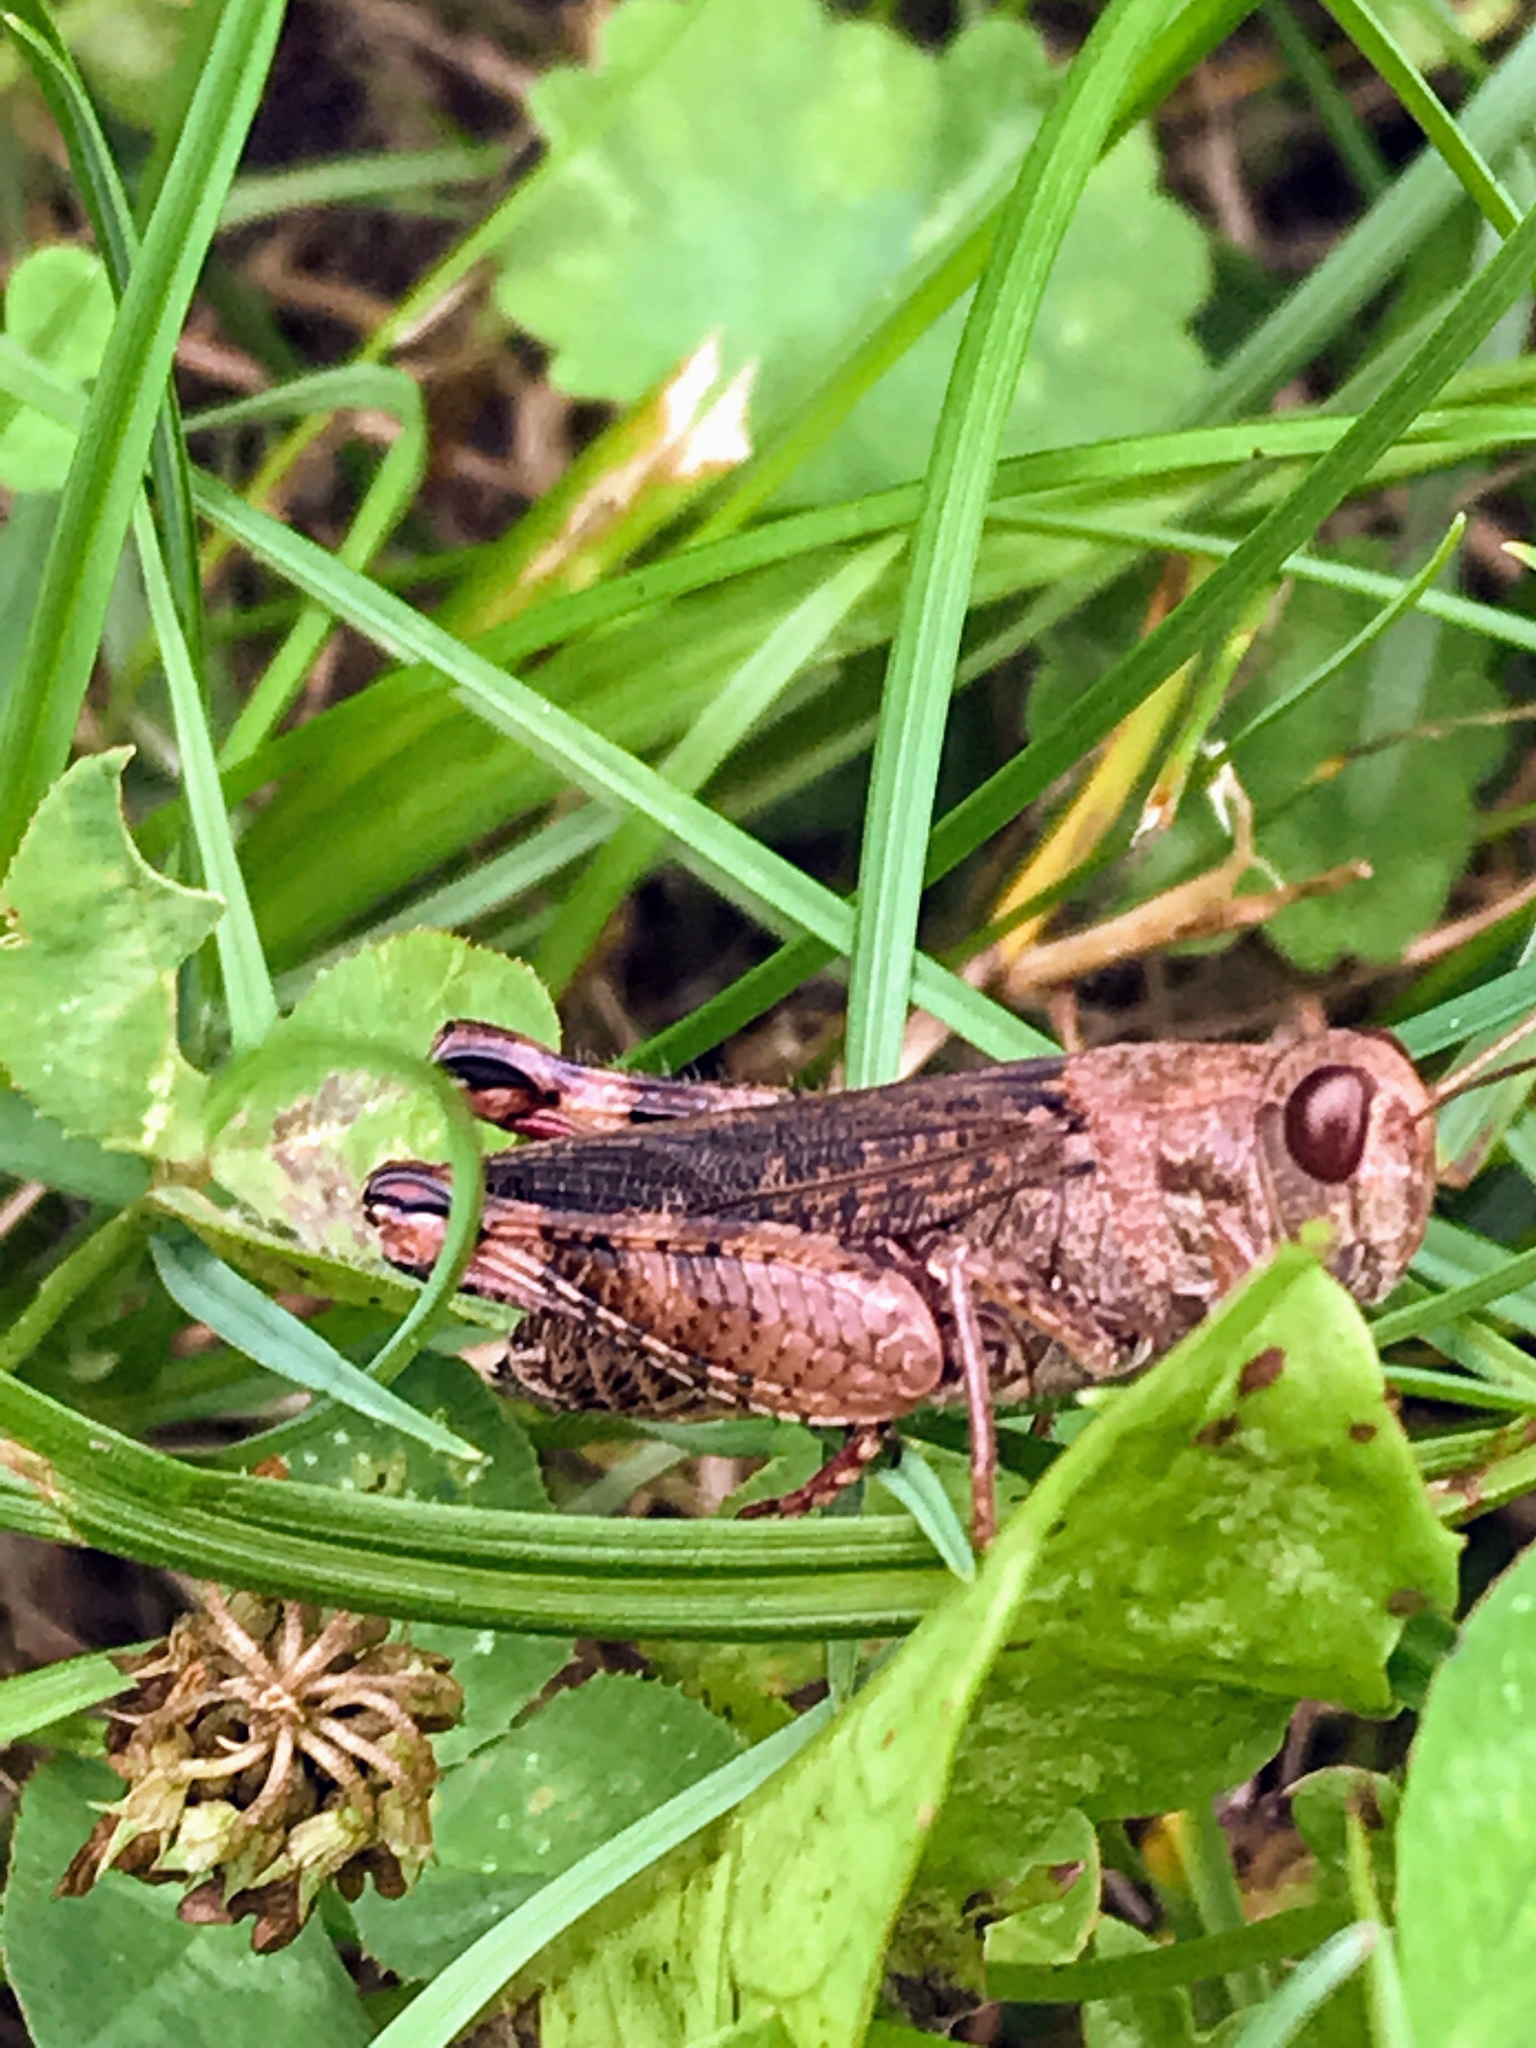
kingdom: Animalia
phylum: Arthropoda
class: Insecta
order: Orthoptera
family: Acrididae
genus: Calliptamus
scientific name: Calliptamus italicus
